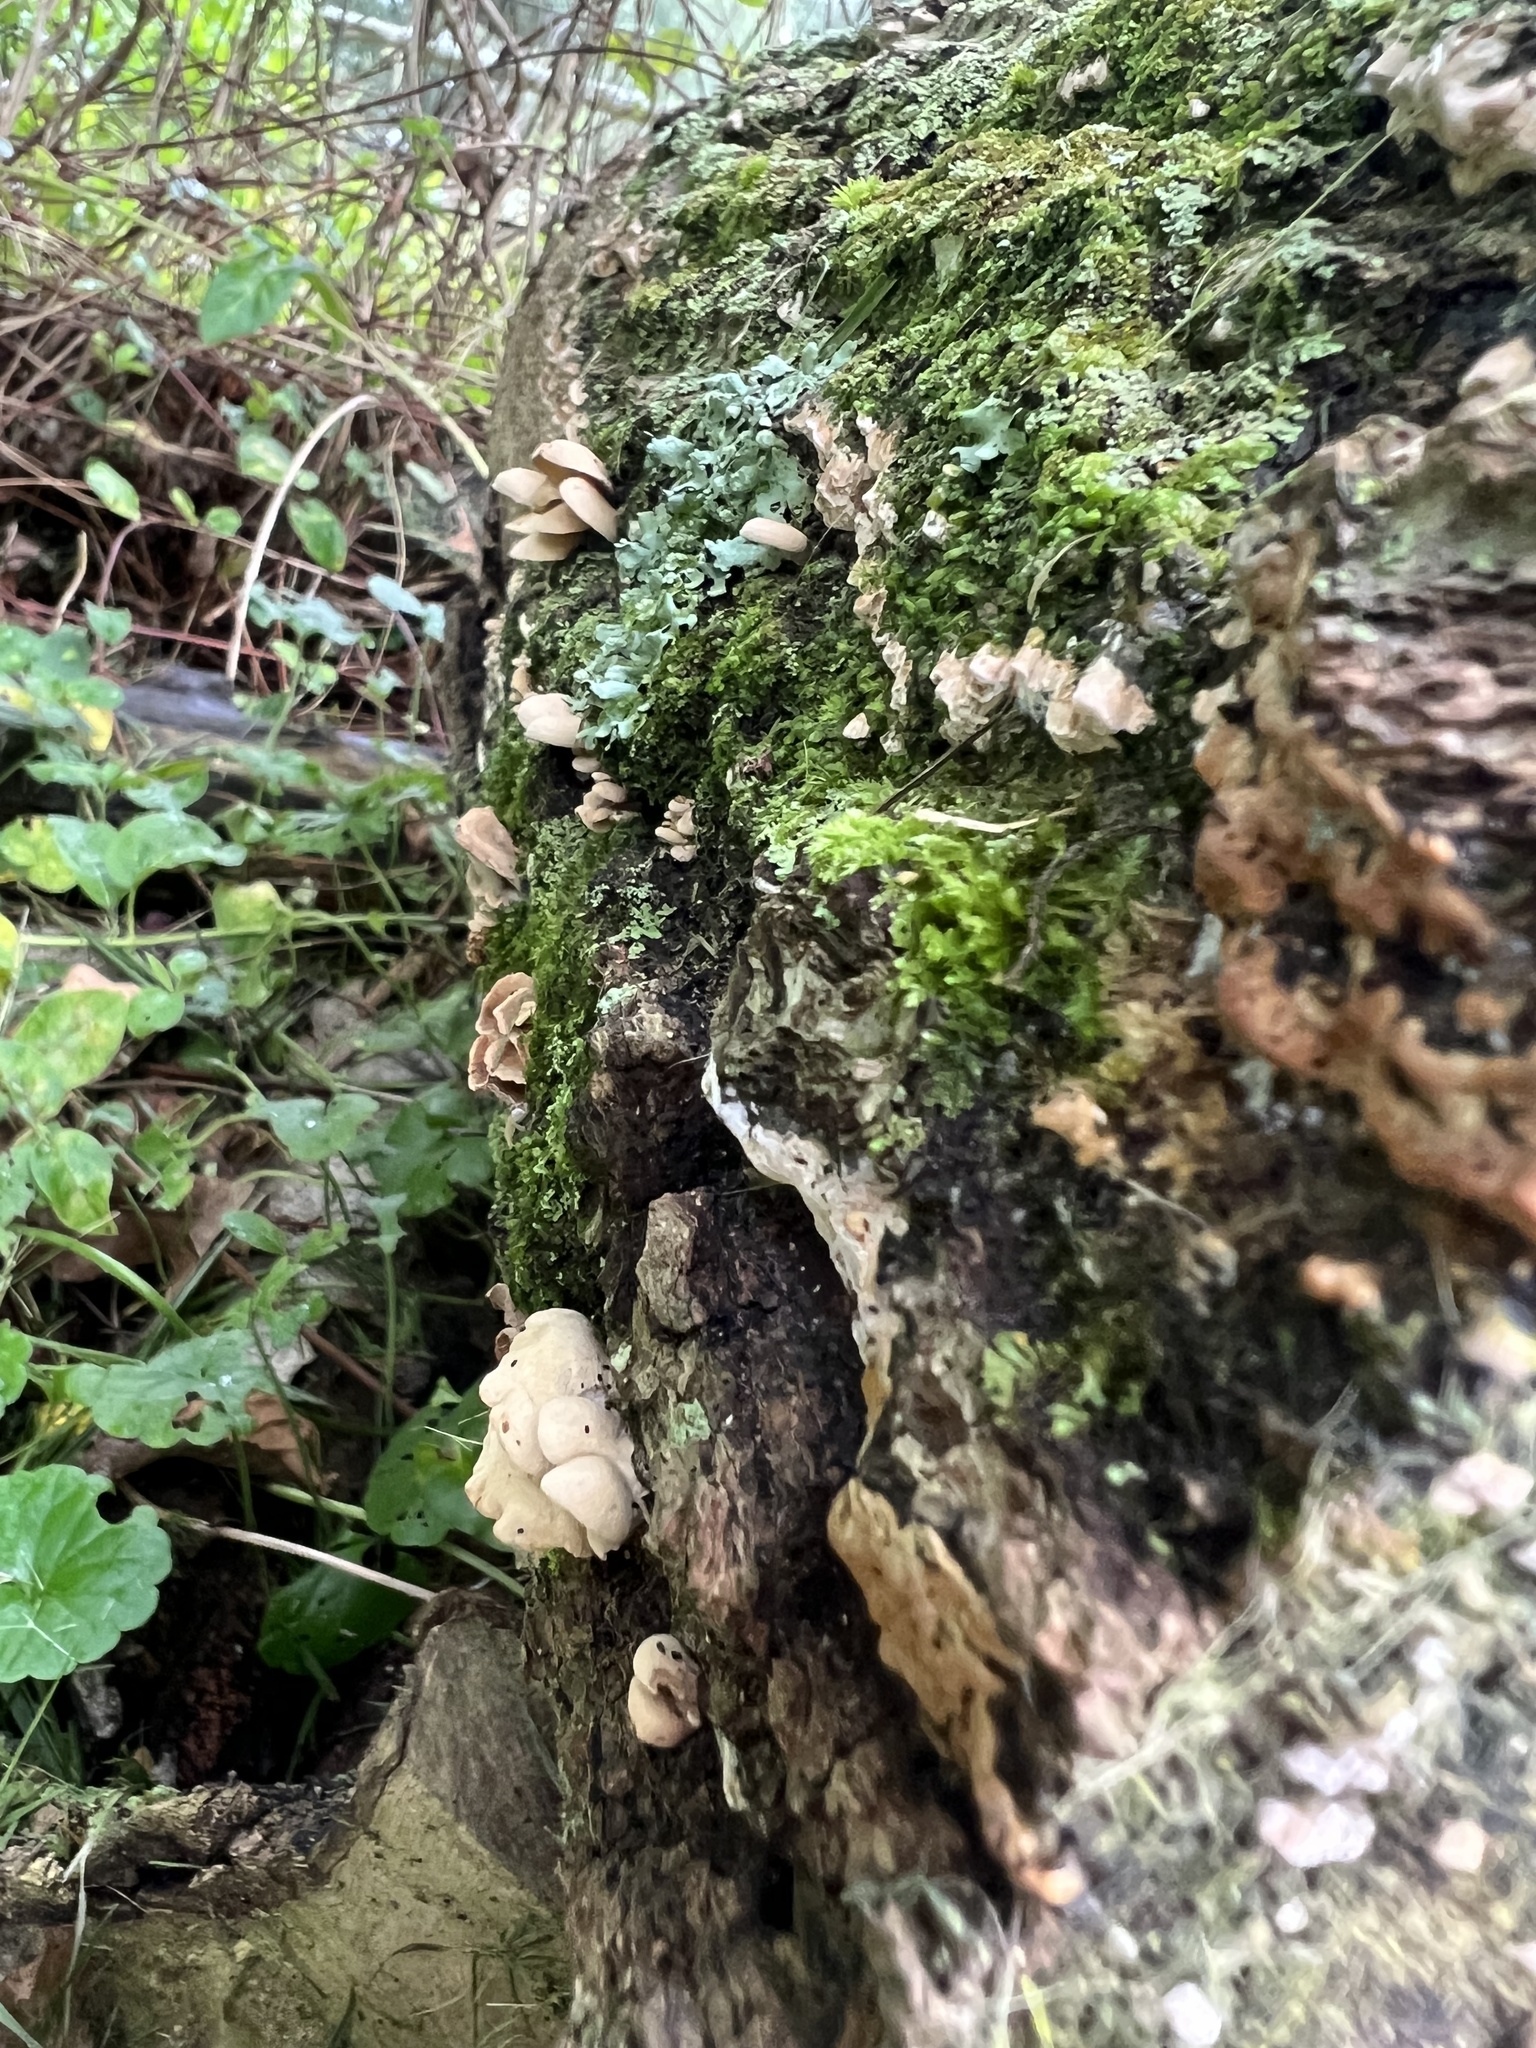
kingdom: Fungi
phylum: Basidiomycota
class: Agaricomycetes
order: Agaricales
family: Mycenaceae
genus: Panellus
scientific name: Panellus stipticus
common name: Bitter oysterling
